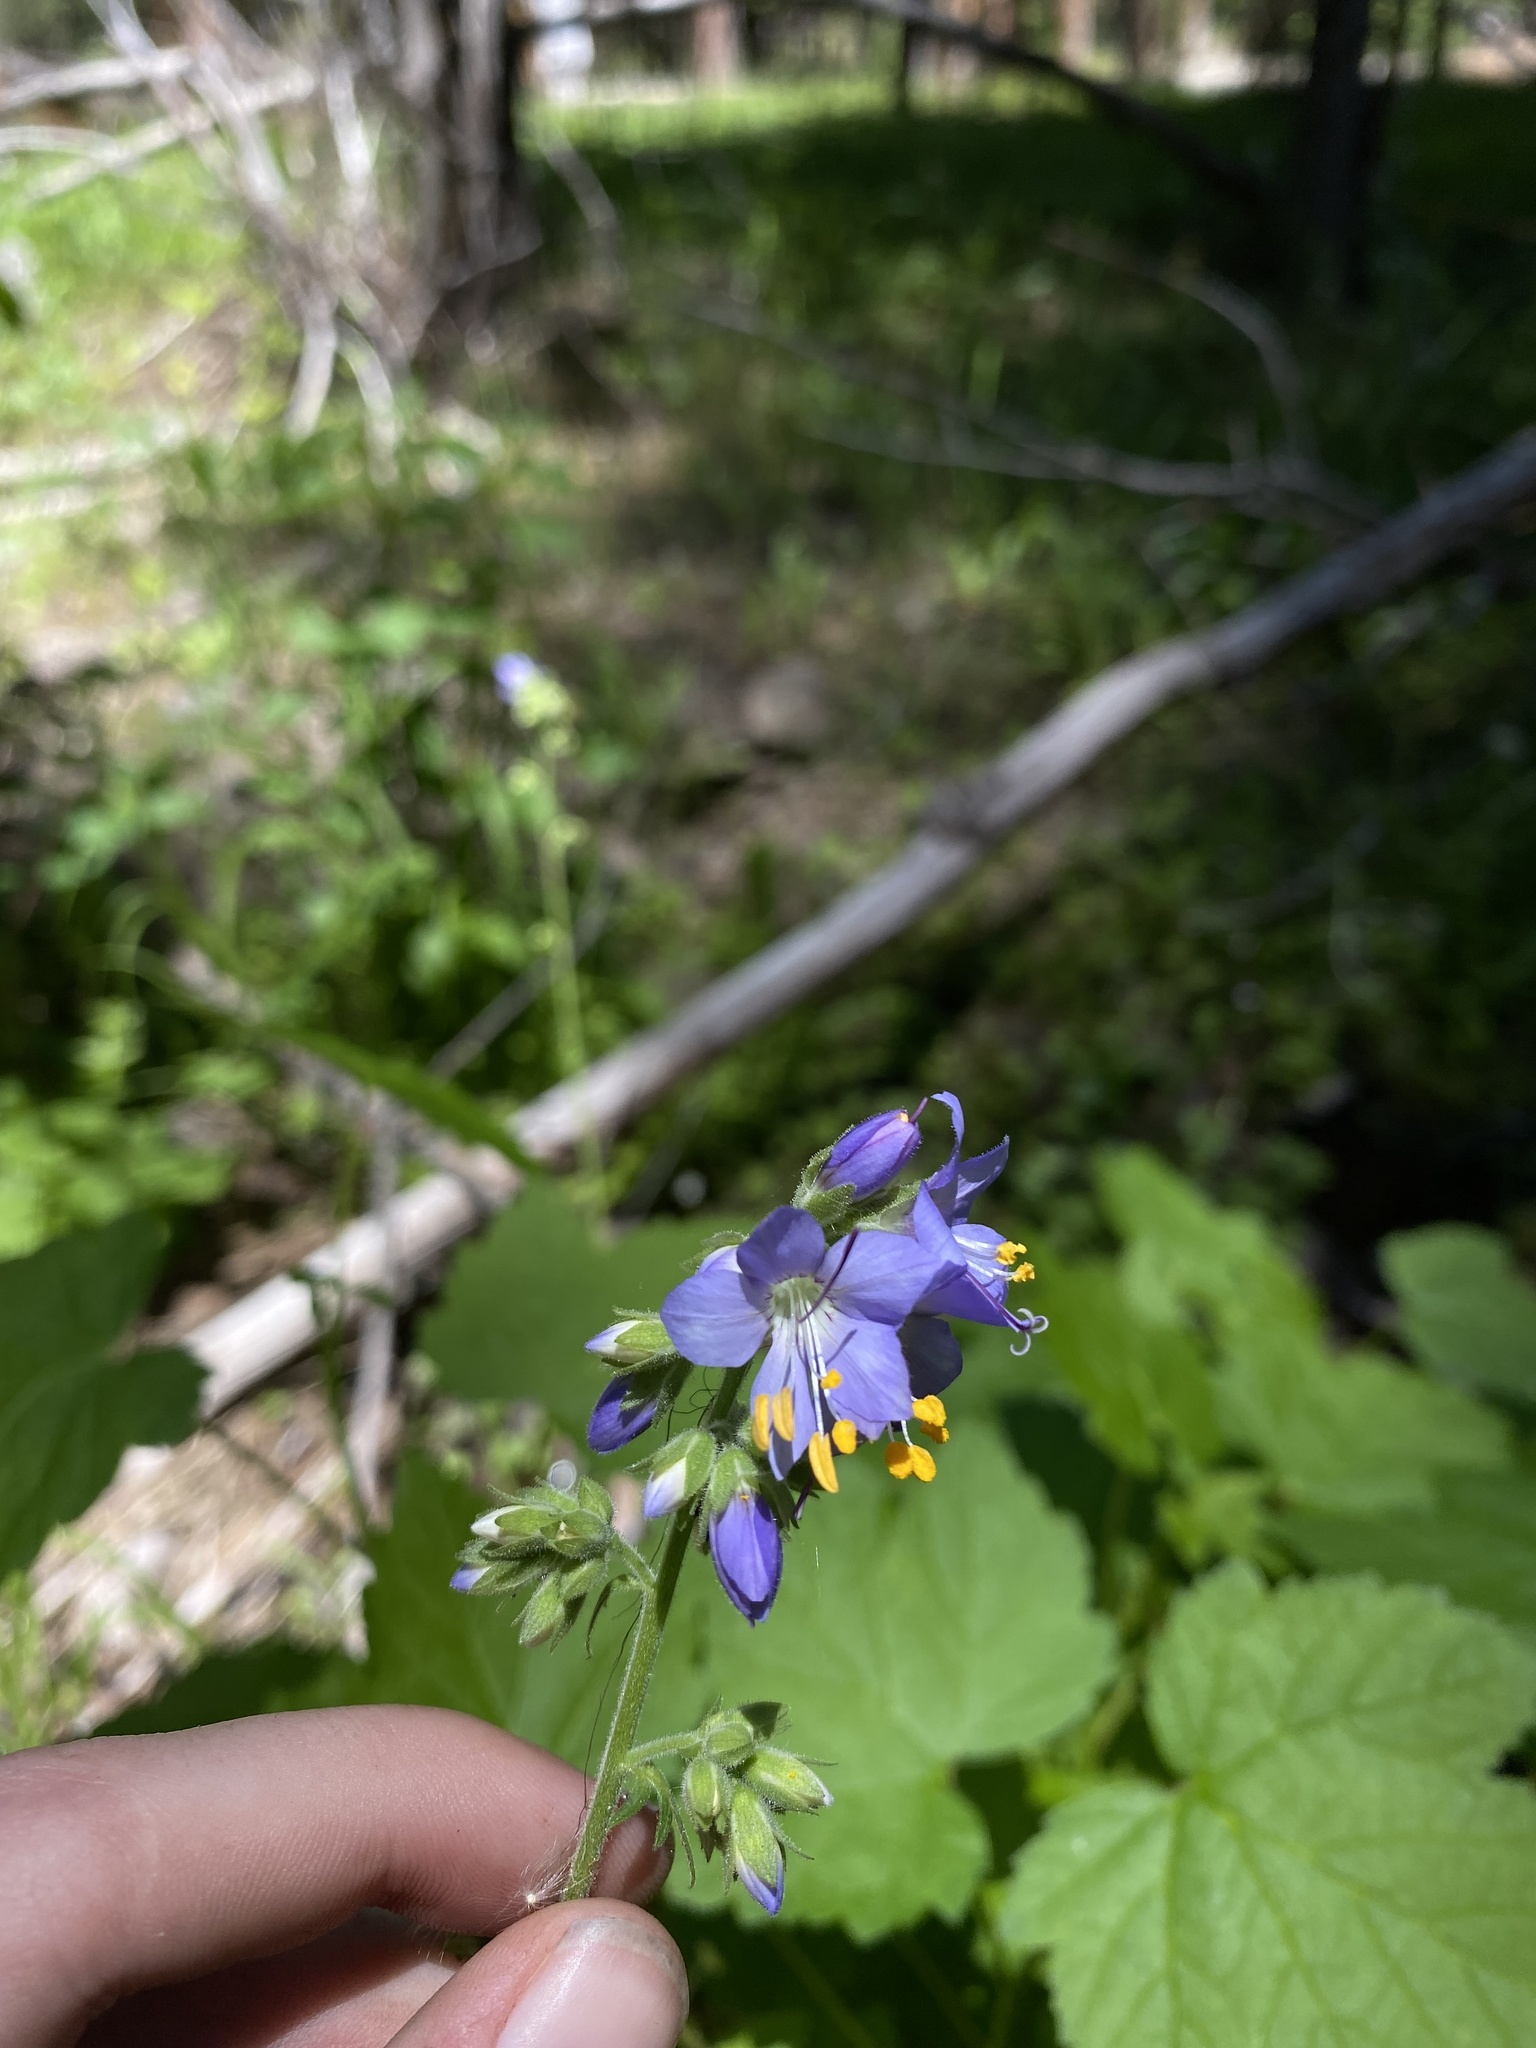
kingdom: Plantae
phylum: Tracheophyta
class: Magnoliopsida
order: Ericales
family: Polemoniaceae
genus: Polemonium
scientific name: Polemonium occidentale
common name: Western jacob's-ladder
